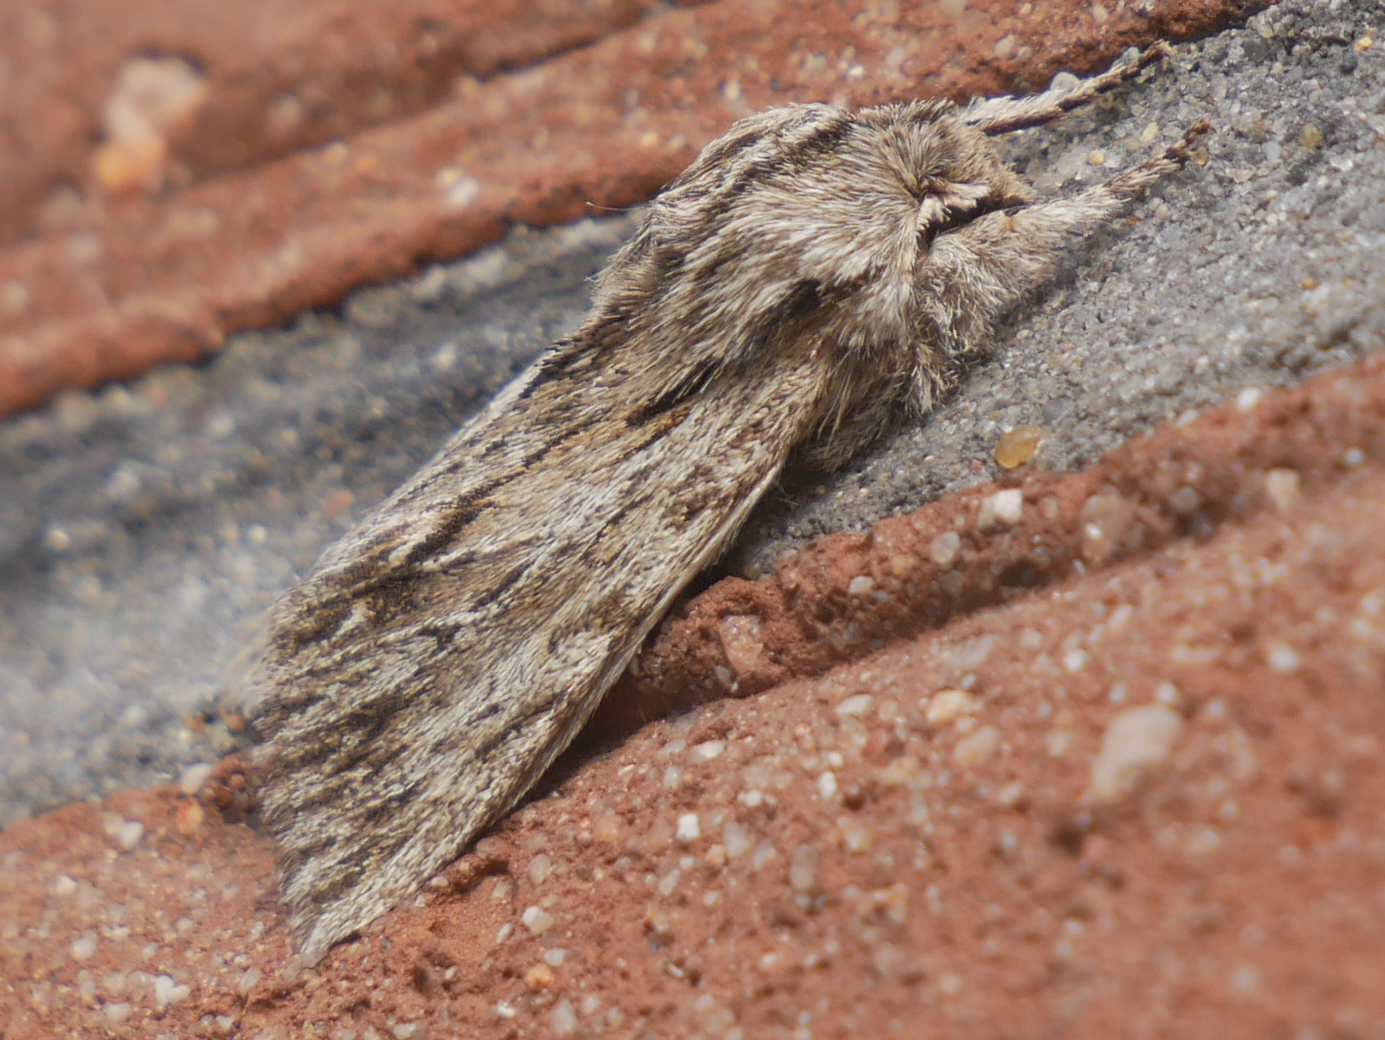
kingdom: Animalia
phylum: Arthropoda
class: Insecta
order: Lepidoptera
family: Noctuidae
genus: Asteroscopus
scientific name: Asteroscopus sphinx
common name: The sprawler
